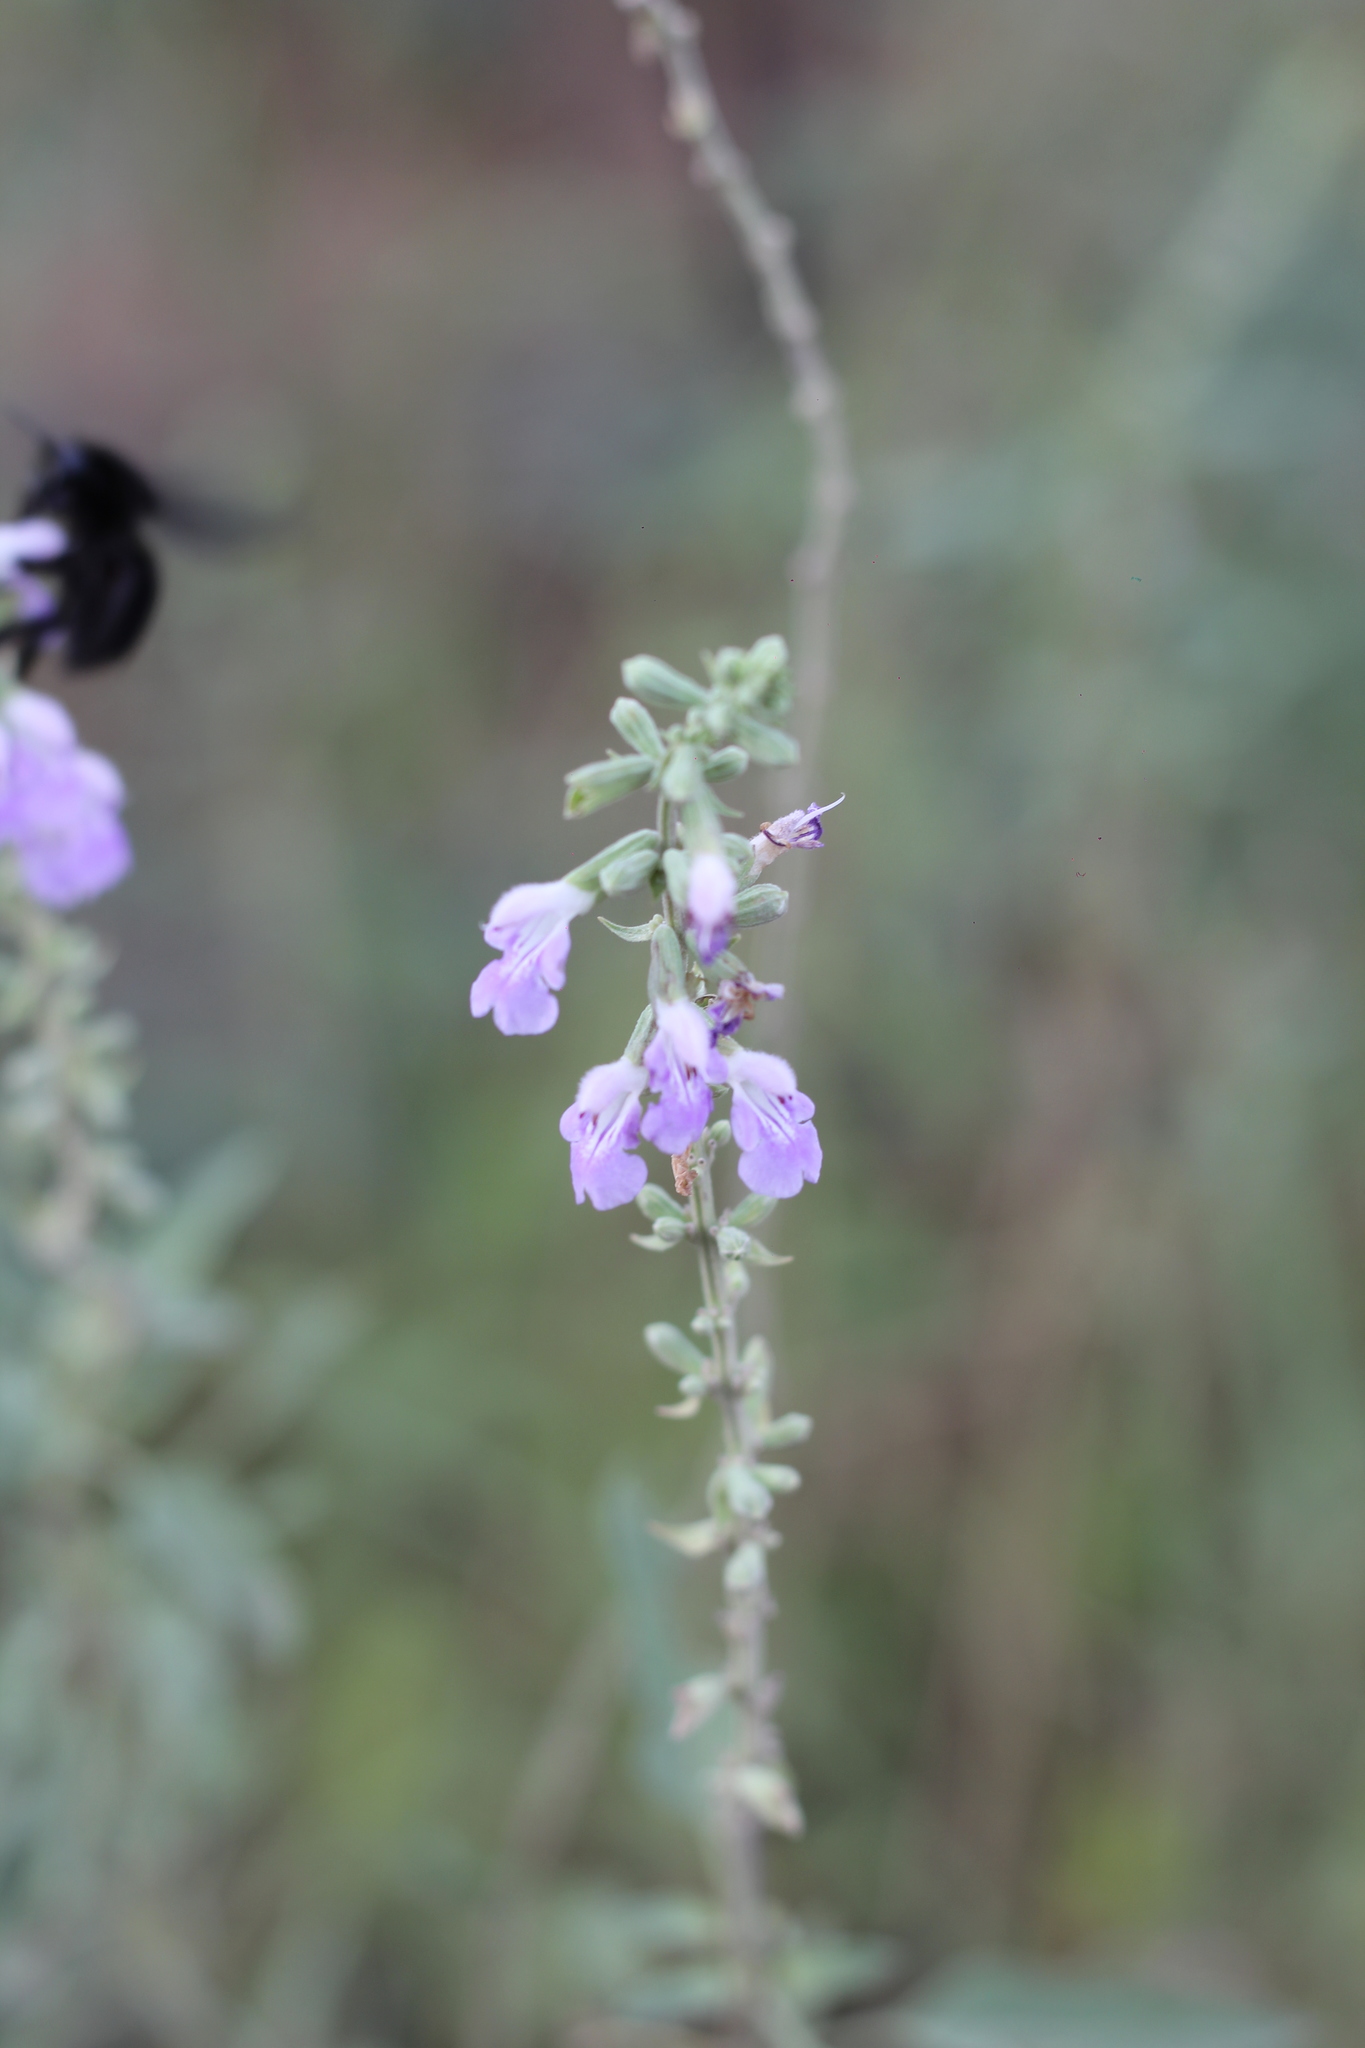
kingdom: Plantae
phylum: Tracheophyta
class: Magnoliopsida
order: Lamiales
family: Lamiaceae
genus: Salvia
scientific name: Salvia pallida
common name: Pale sage
